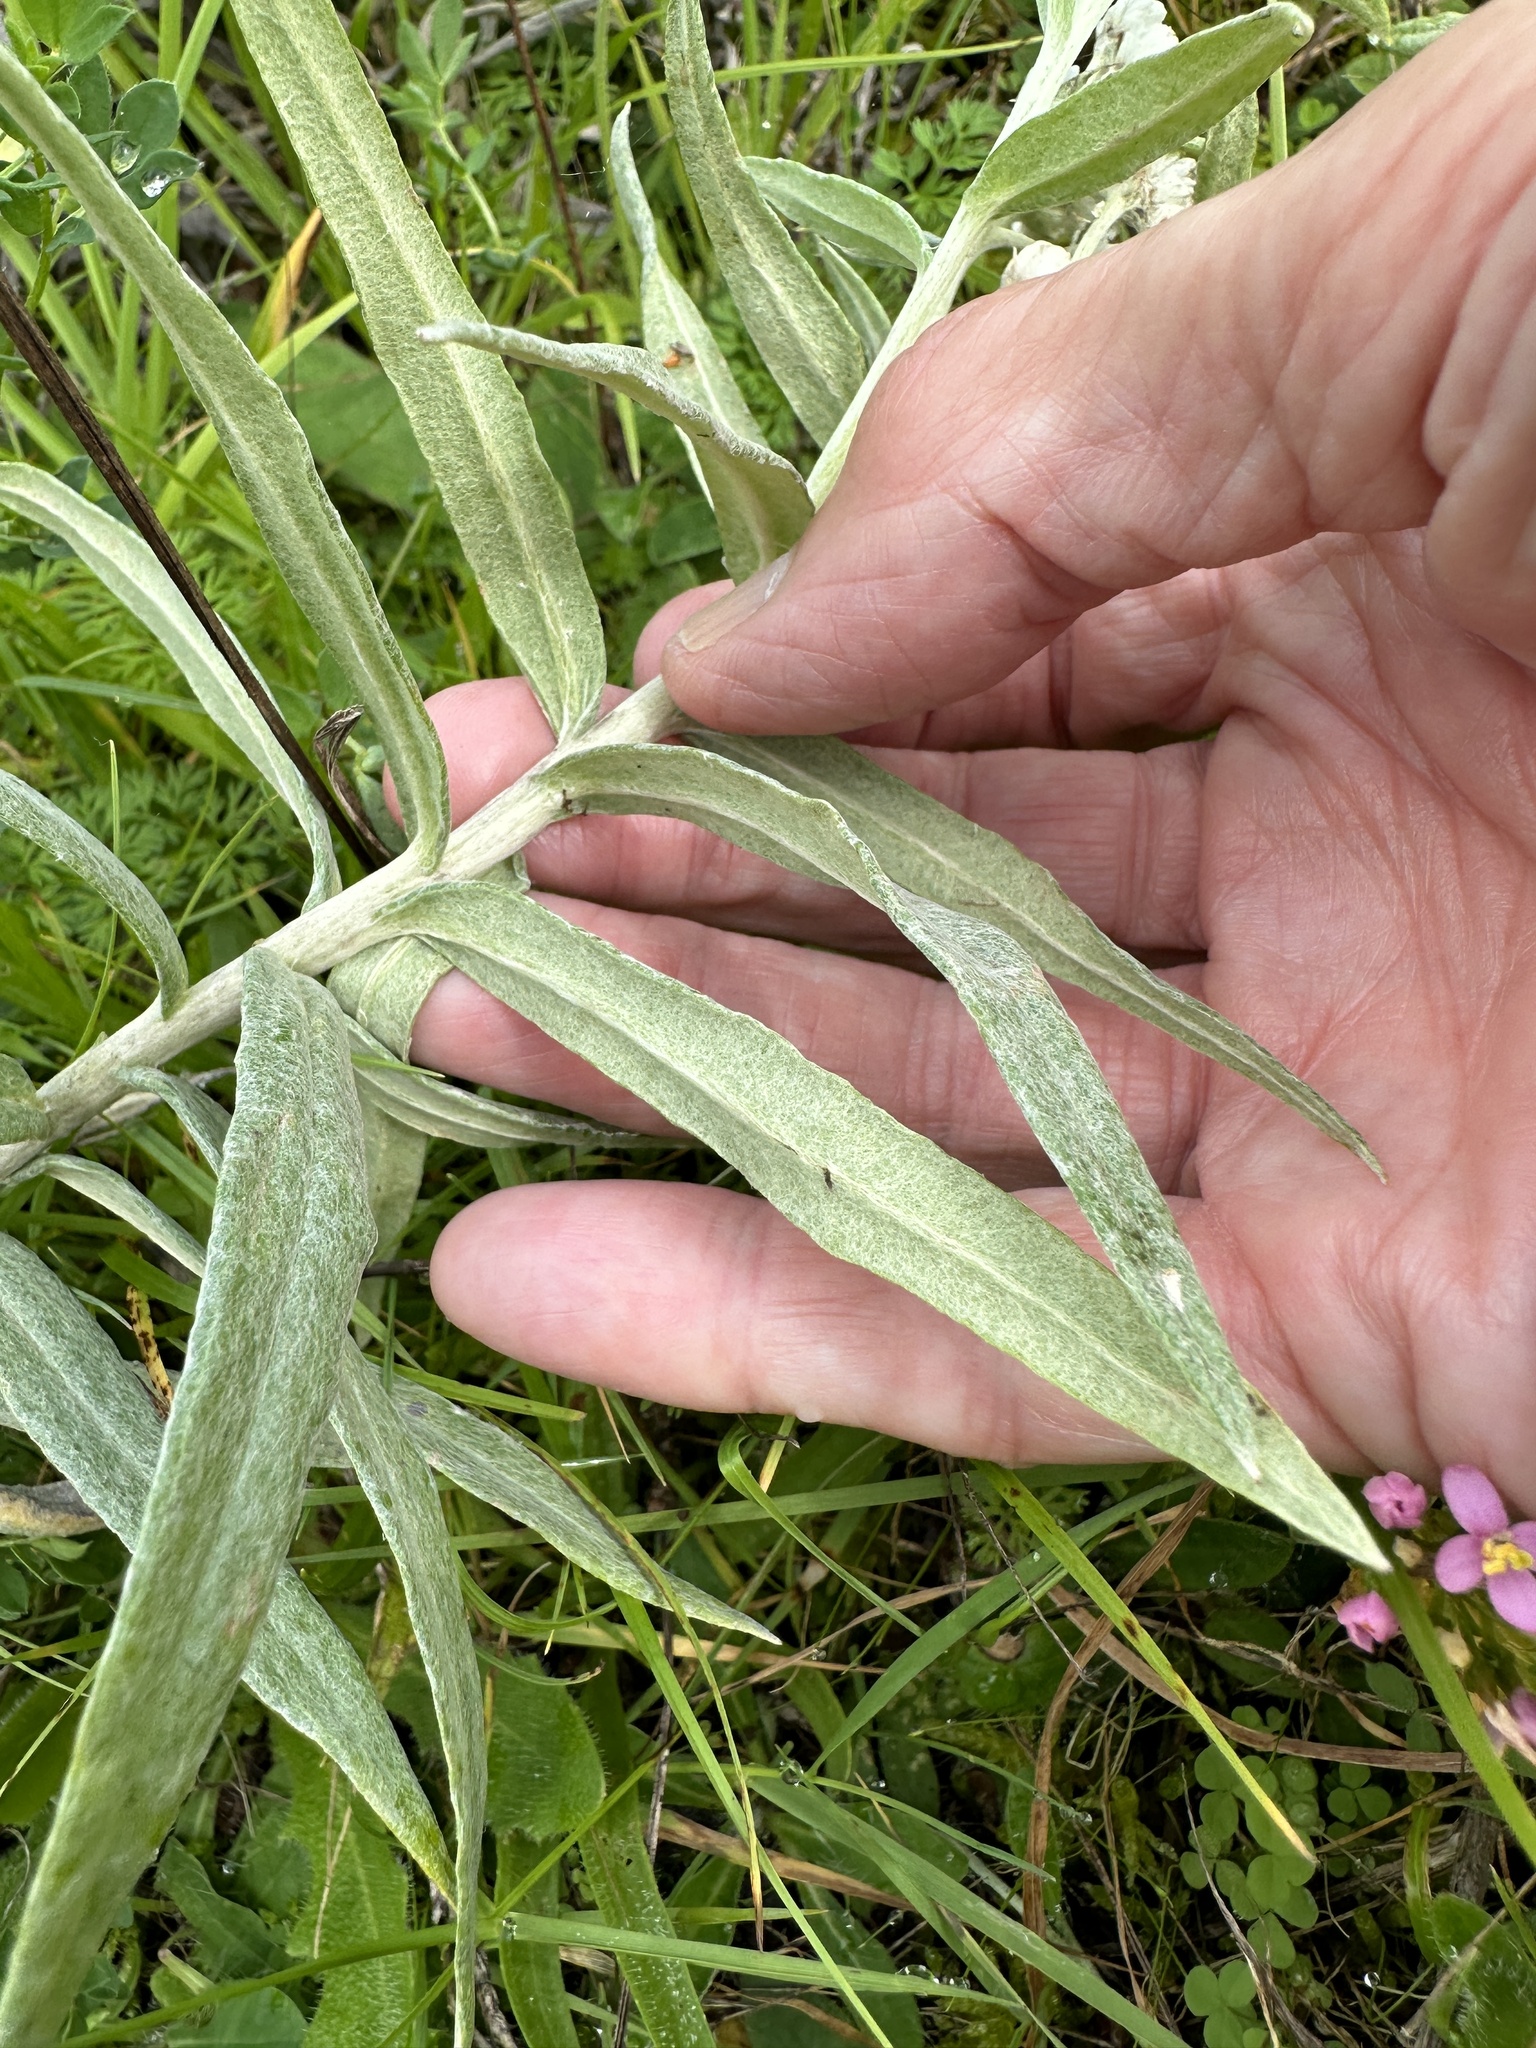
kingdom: Plantae
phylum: Tracheophyta
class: Magnoliopsida
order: Asterales
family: Asteraceae
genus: Anaphalis
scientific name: Anaphalis margaritacea
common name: Pearly everlasting
